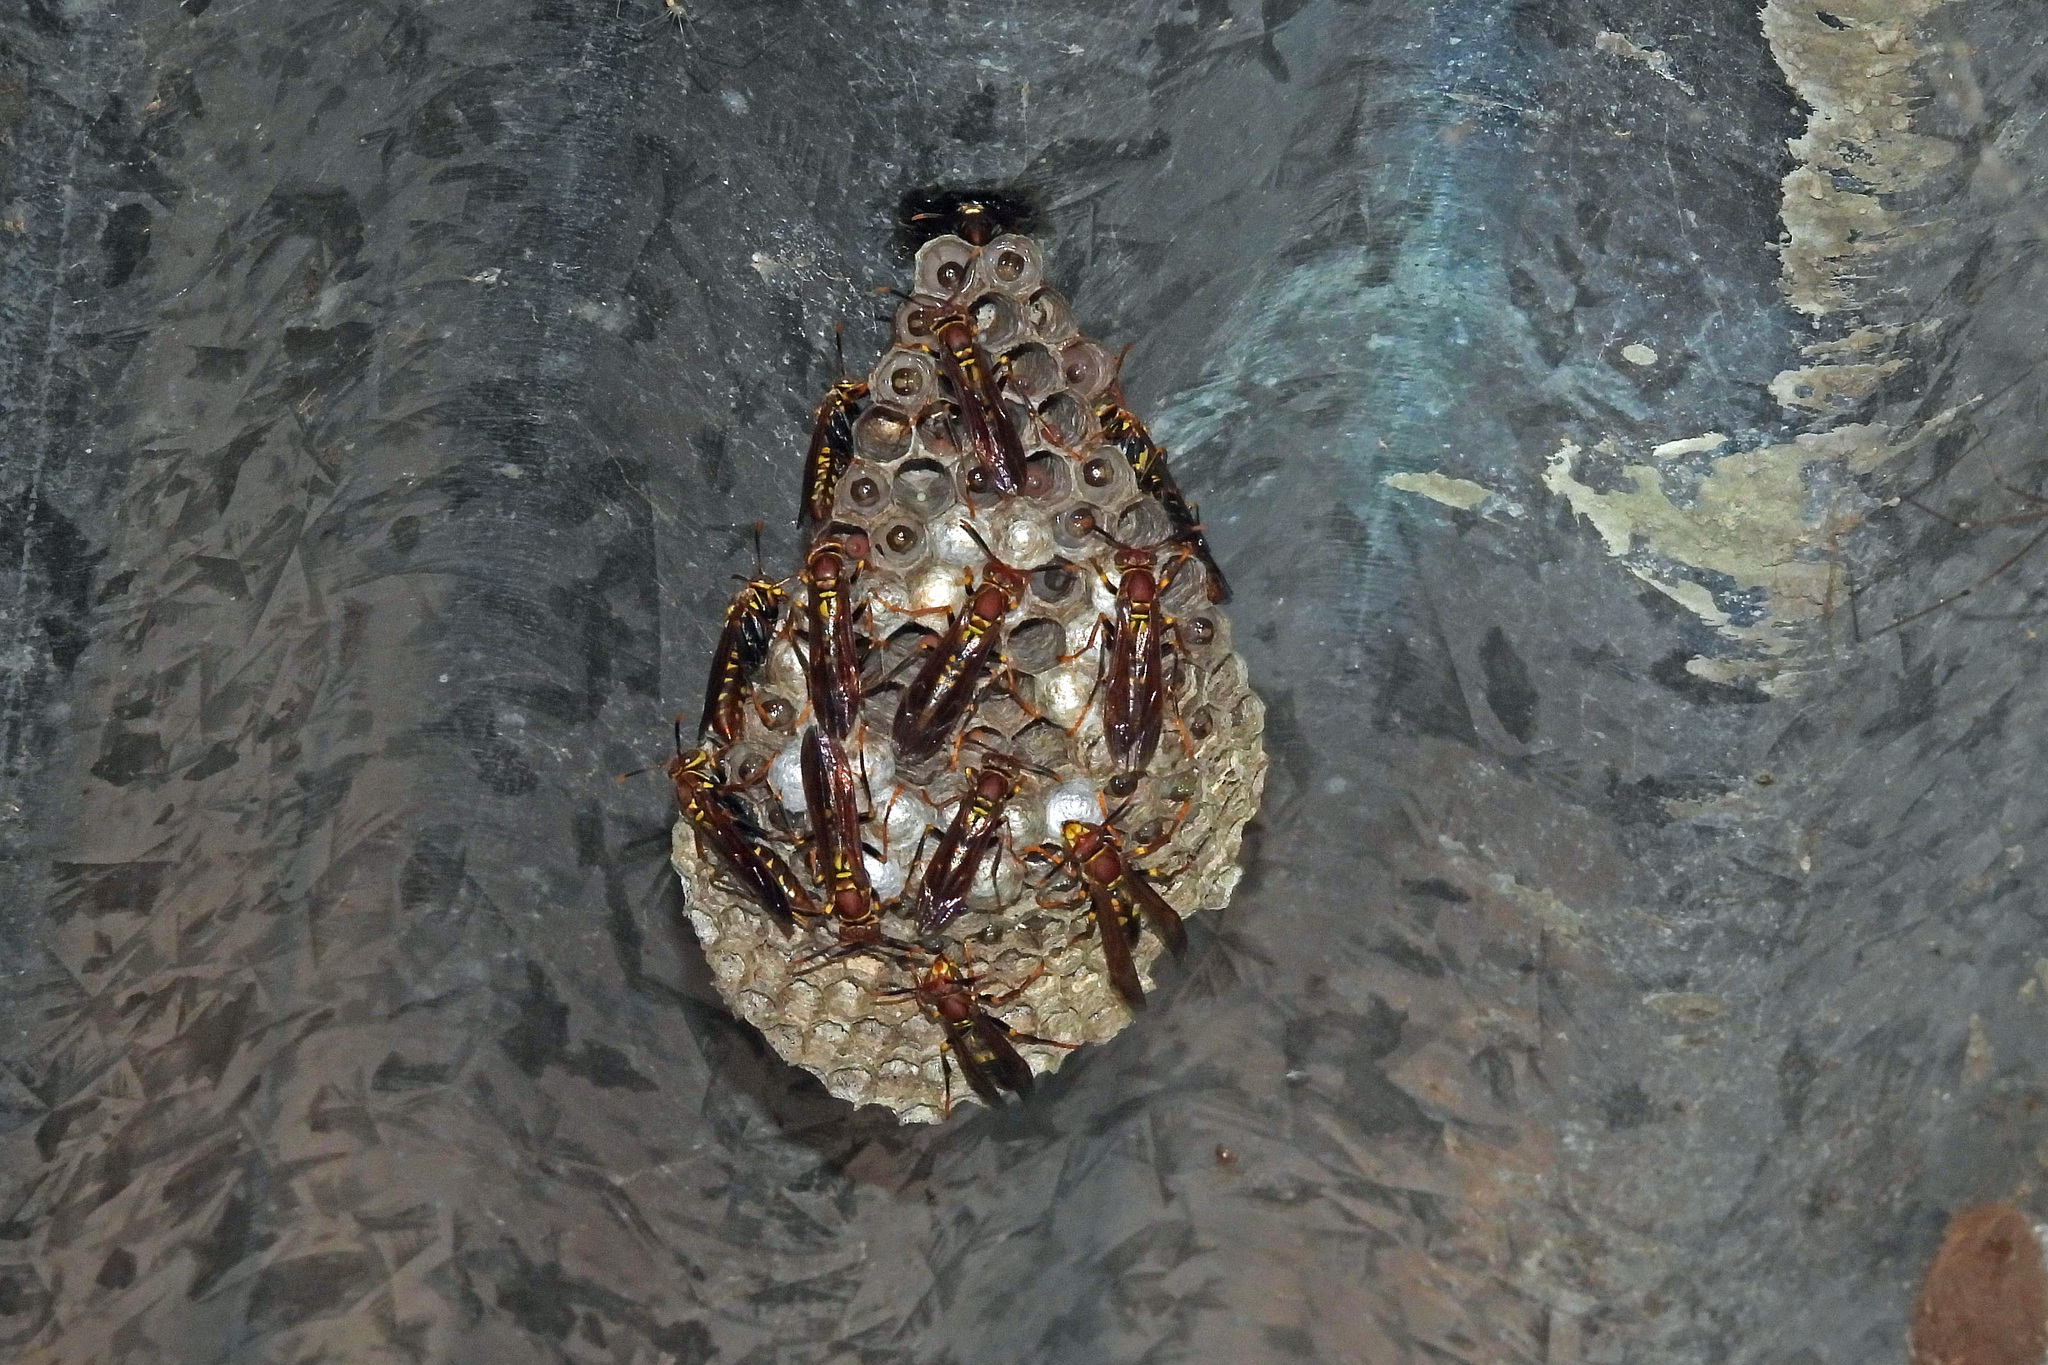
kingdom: Animalia
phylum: Arthropoda
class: Insecta
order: Hymenoptera
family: Eumenidae
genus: Polistes
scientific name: Polistes versicolor
